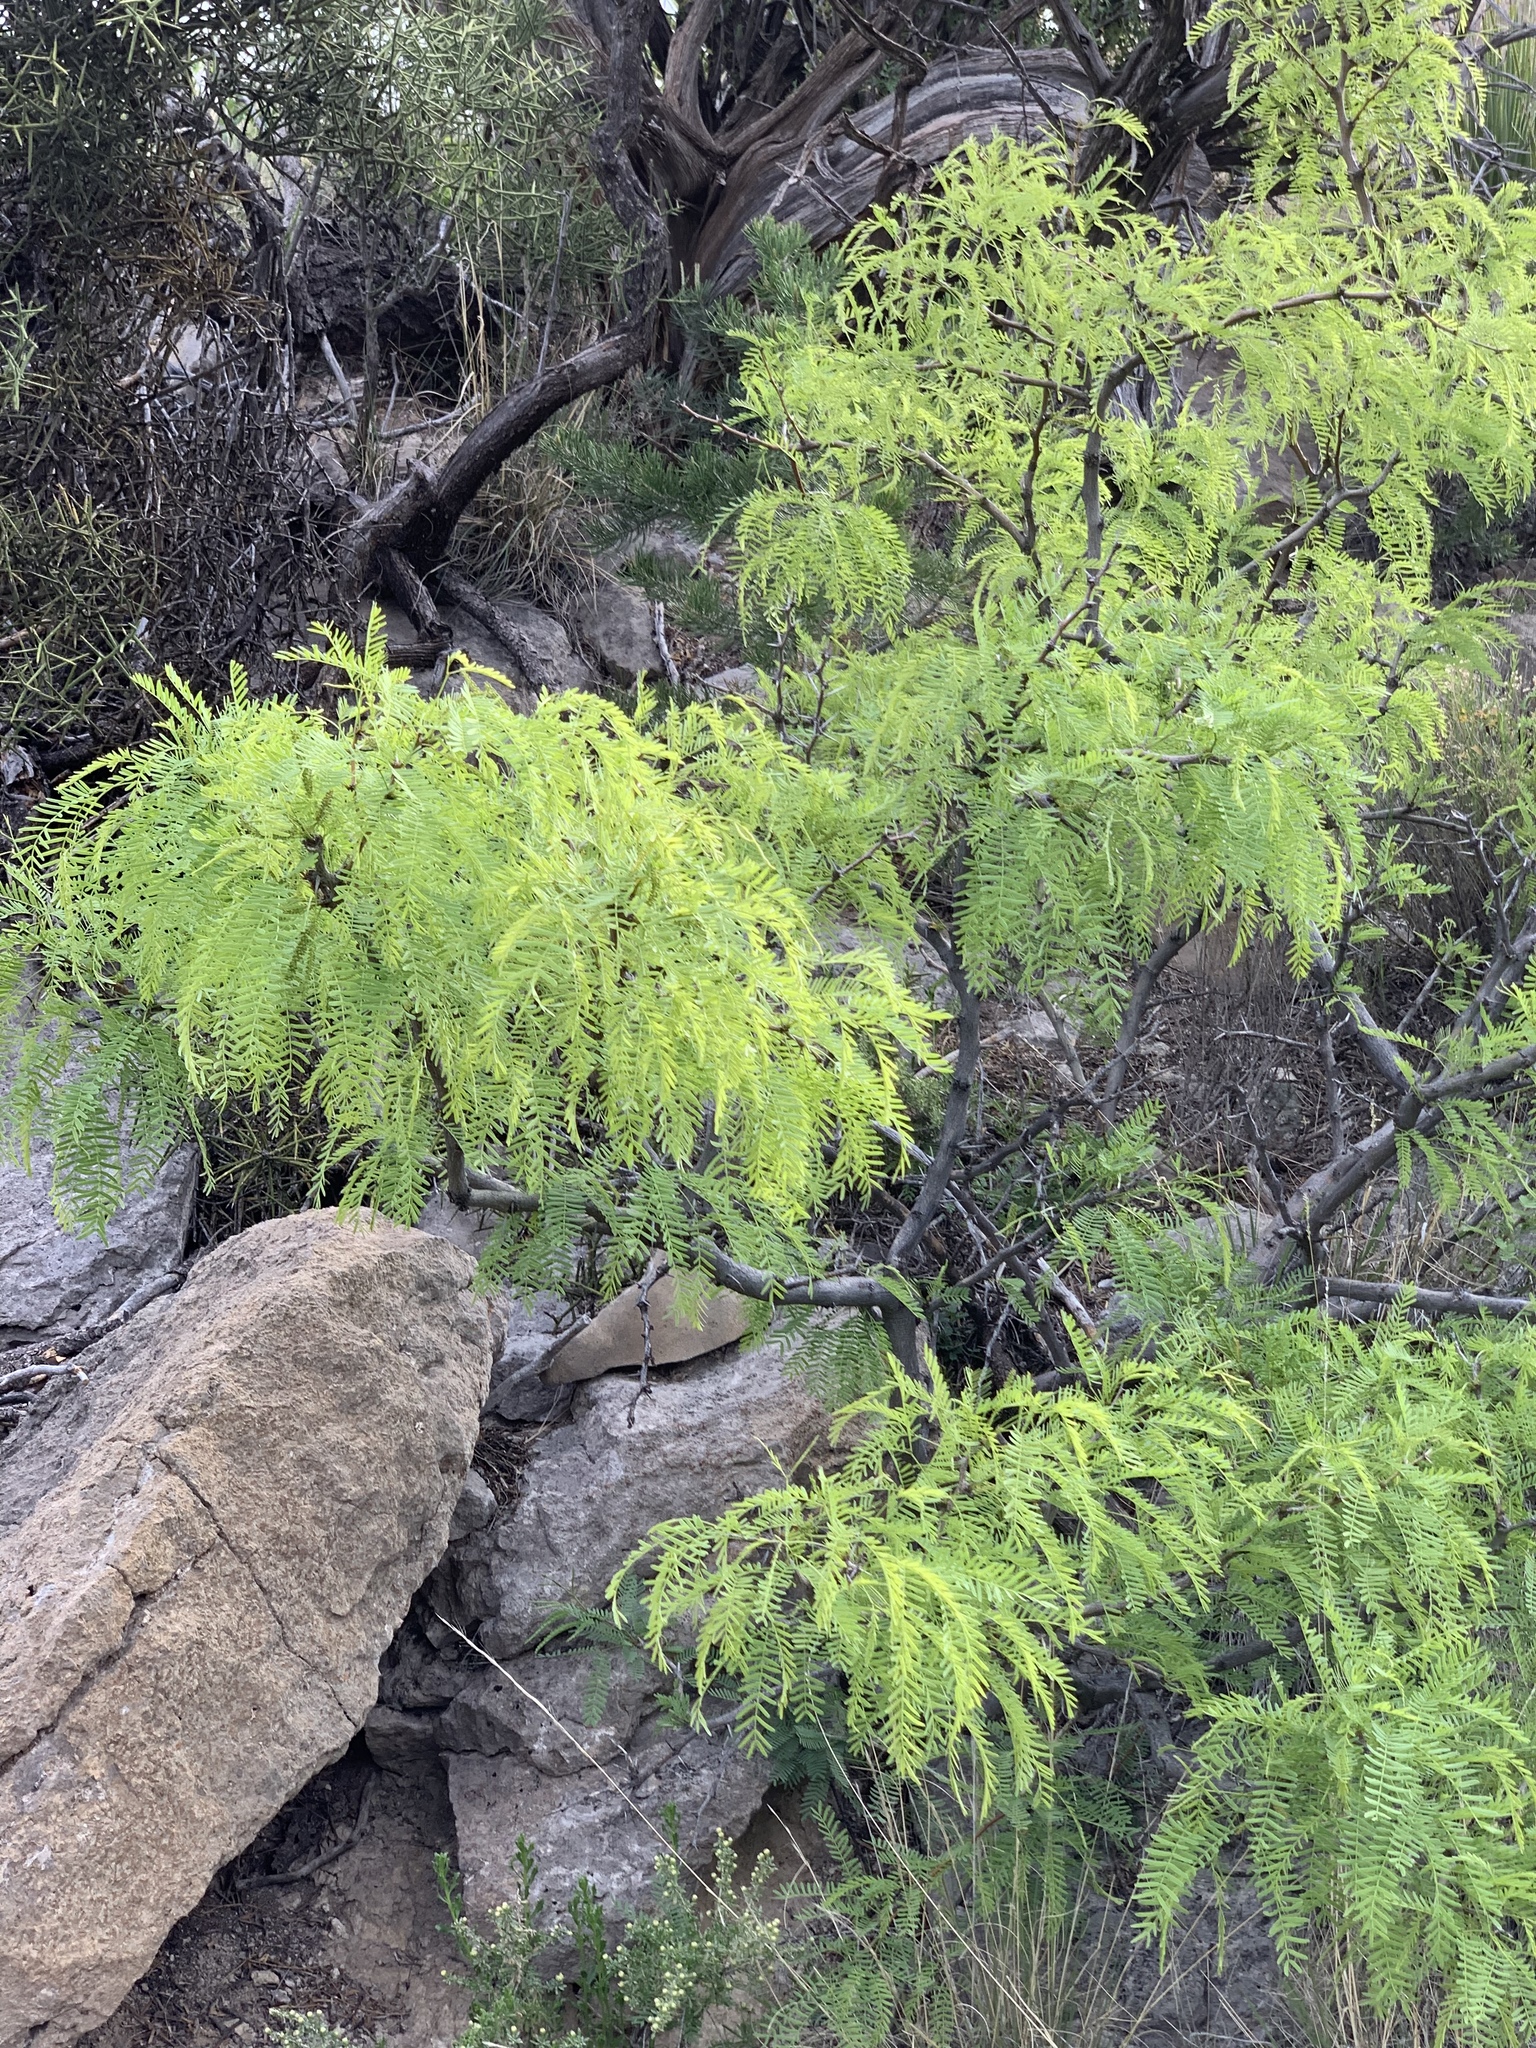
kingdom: Plantae
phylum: Tracheophyta
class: Magnoliopsida
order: Fabales
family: Fabaceae
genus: Prosopis
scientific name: Prosopis glandulosa
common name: Honey mesquite
